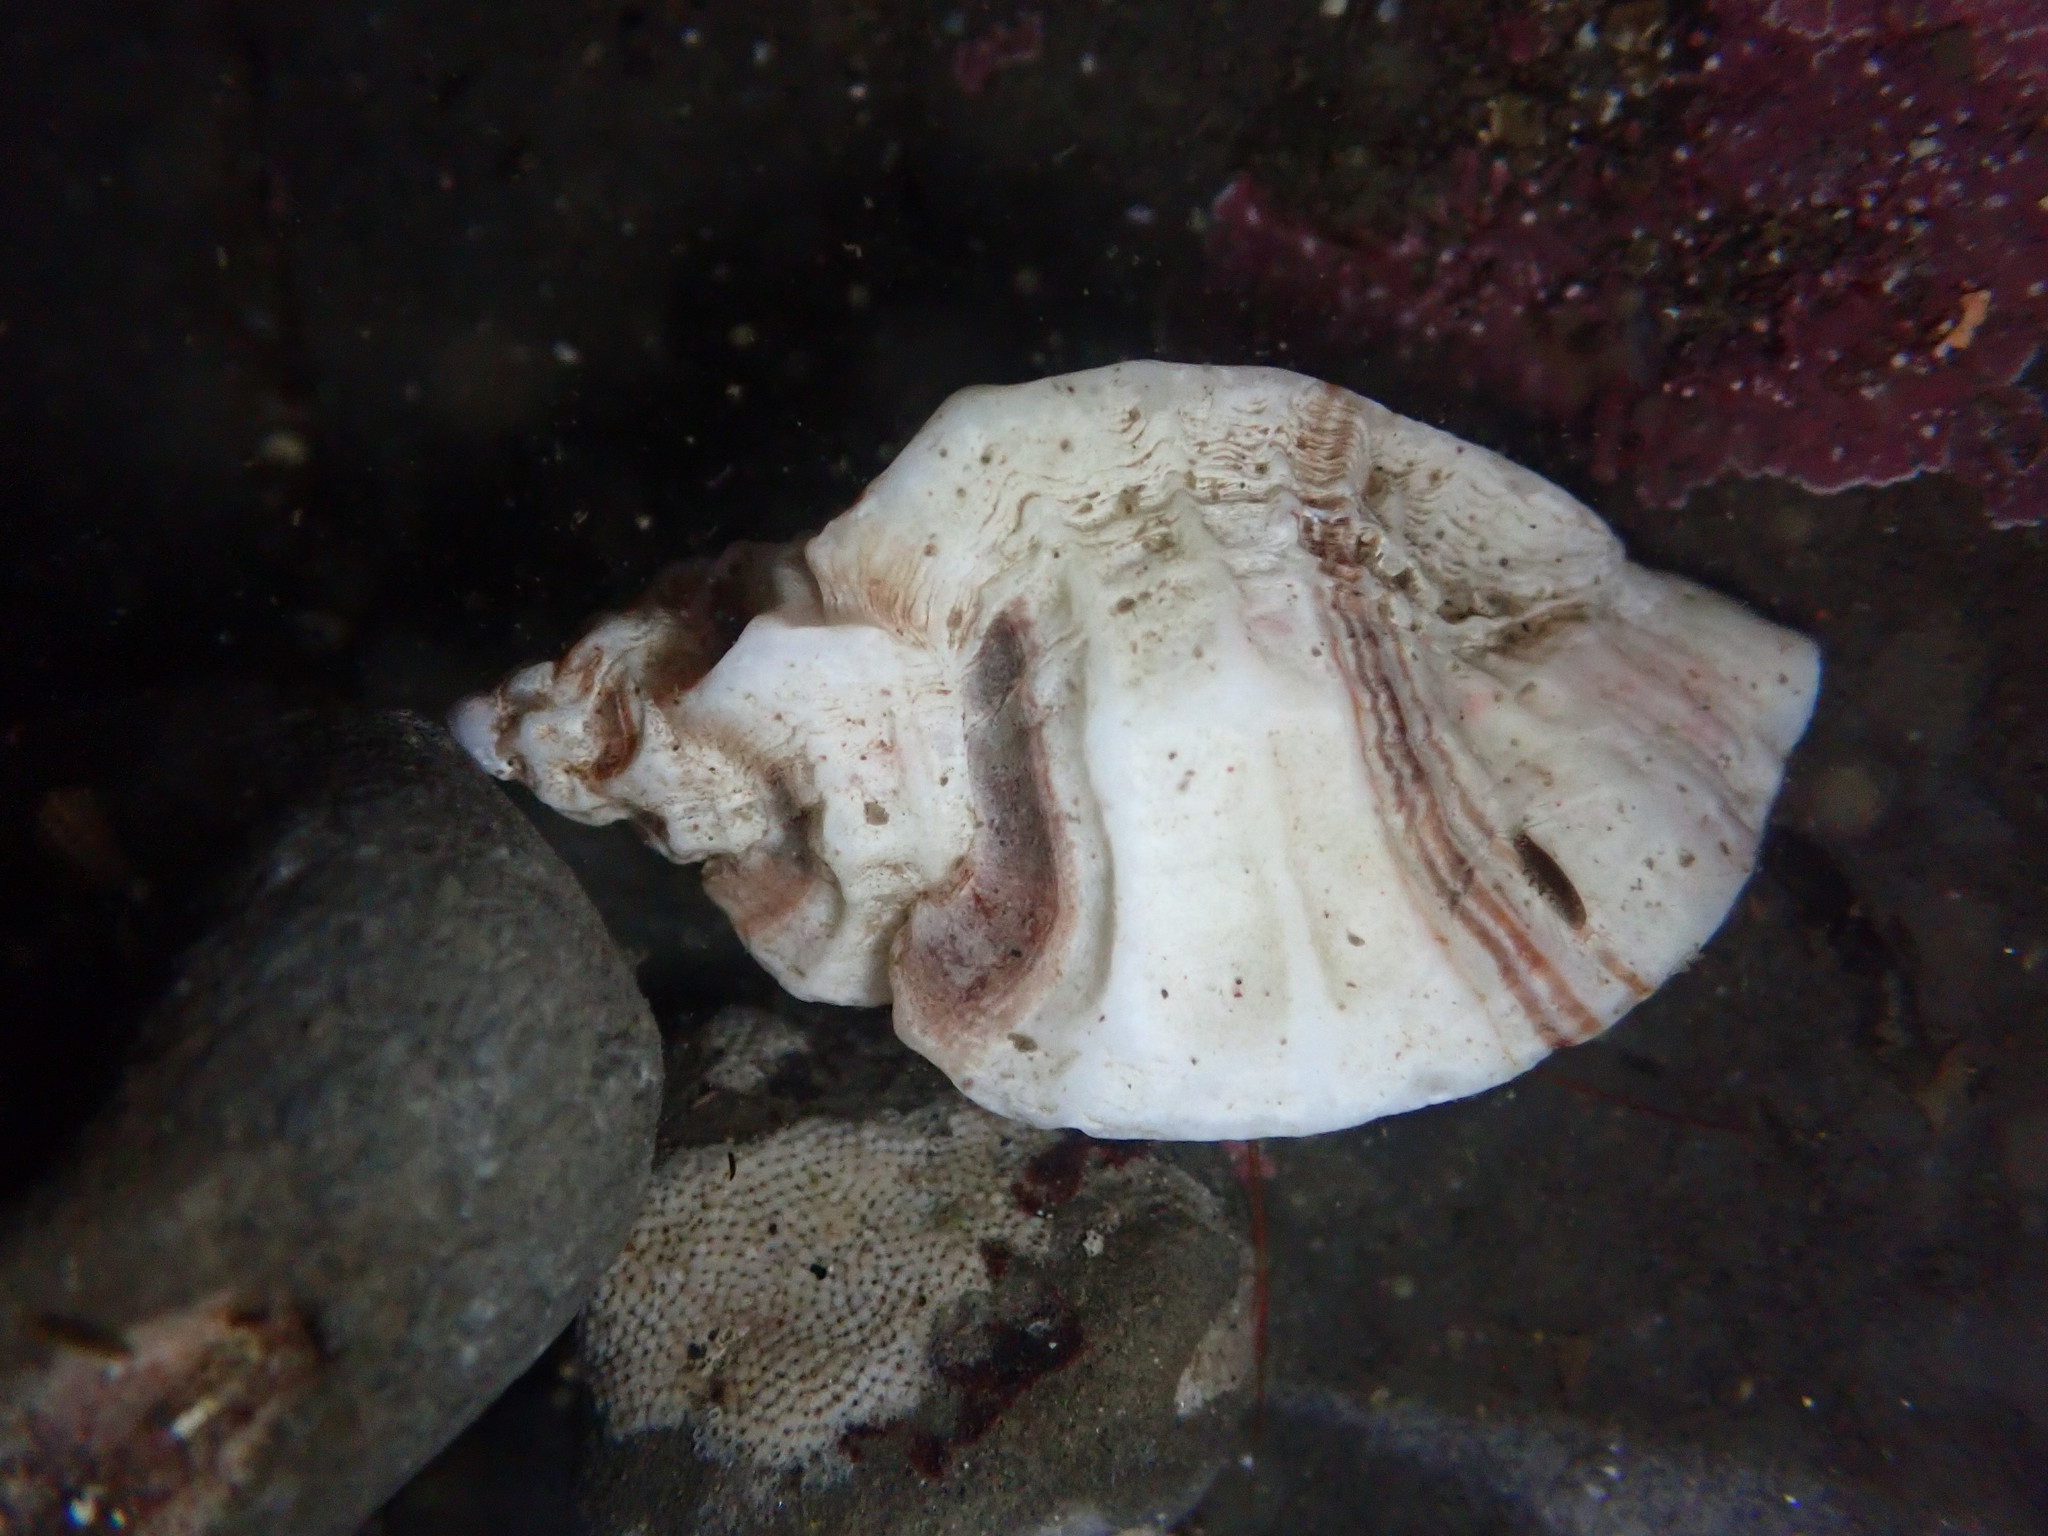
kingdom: Animalia
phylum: Mollusca
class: Gastropoda
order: Neogastropoda
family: Muricidae
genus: Ceratostoma
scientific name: Ceratostoma foliatum
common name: Foliate thorn purpura
